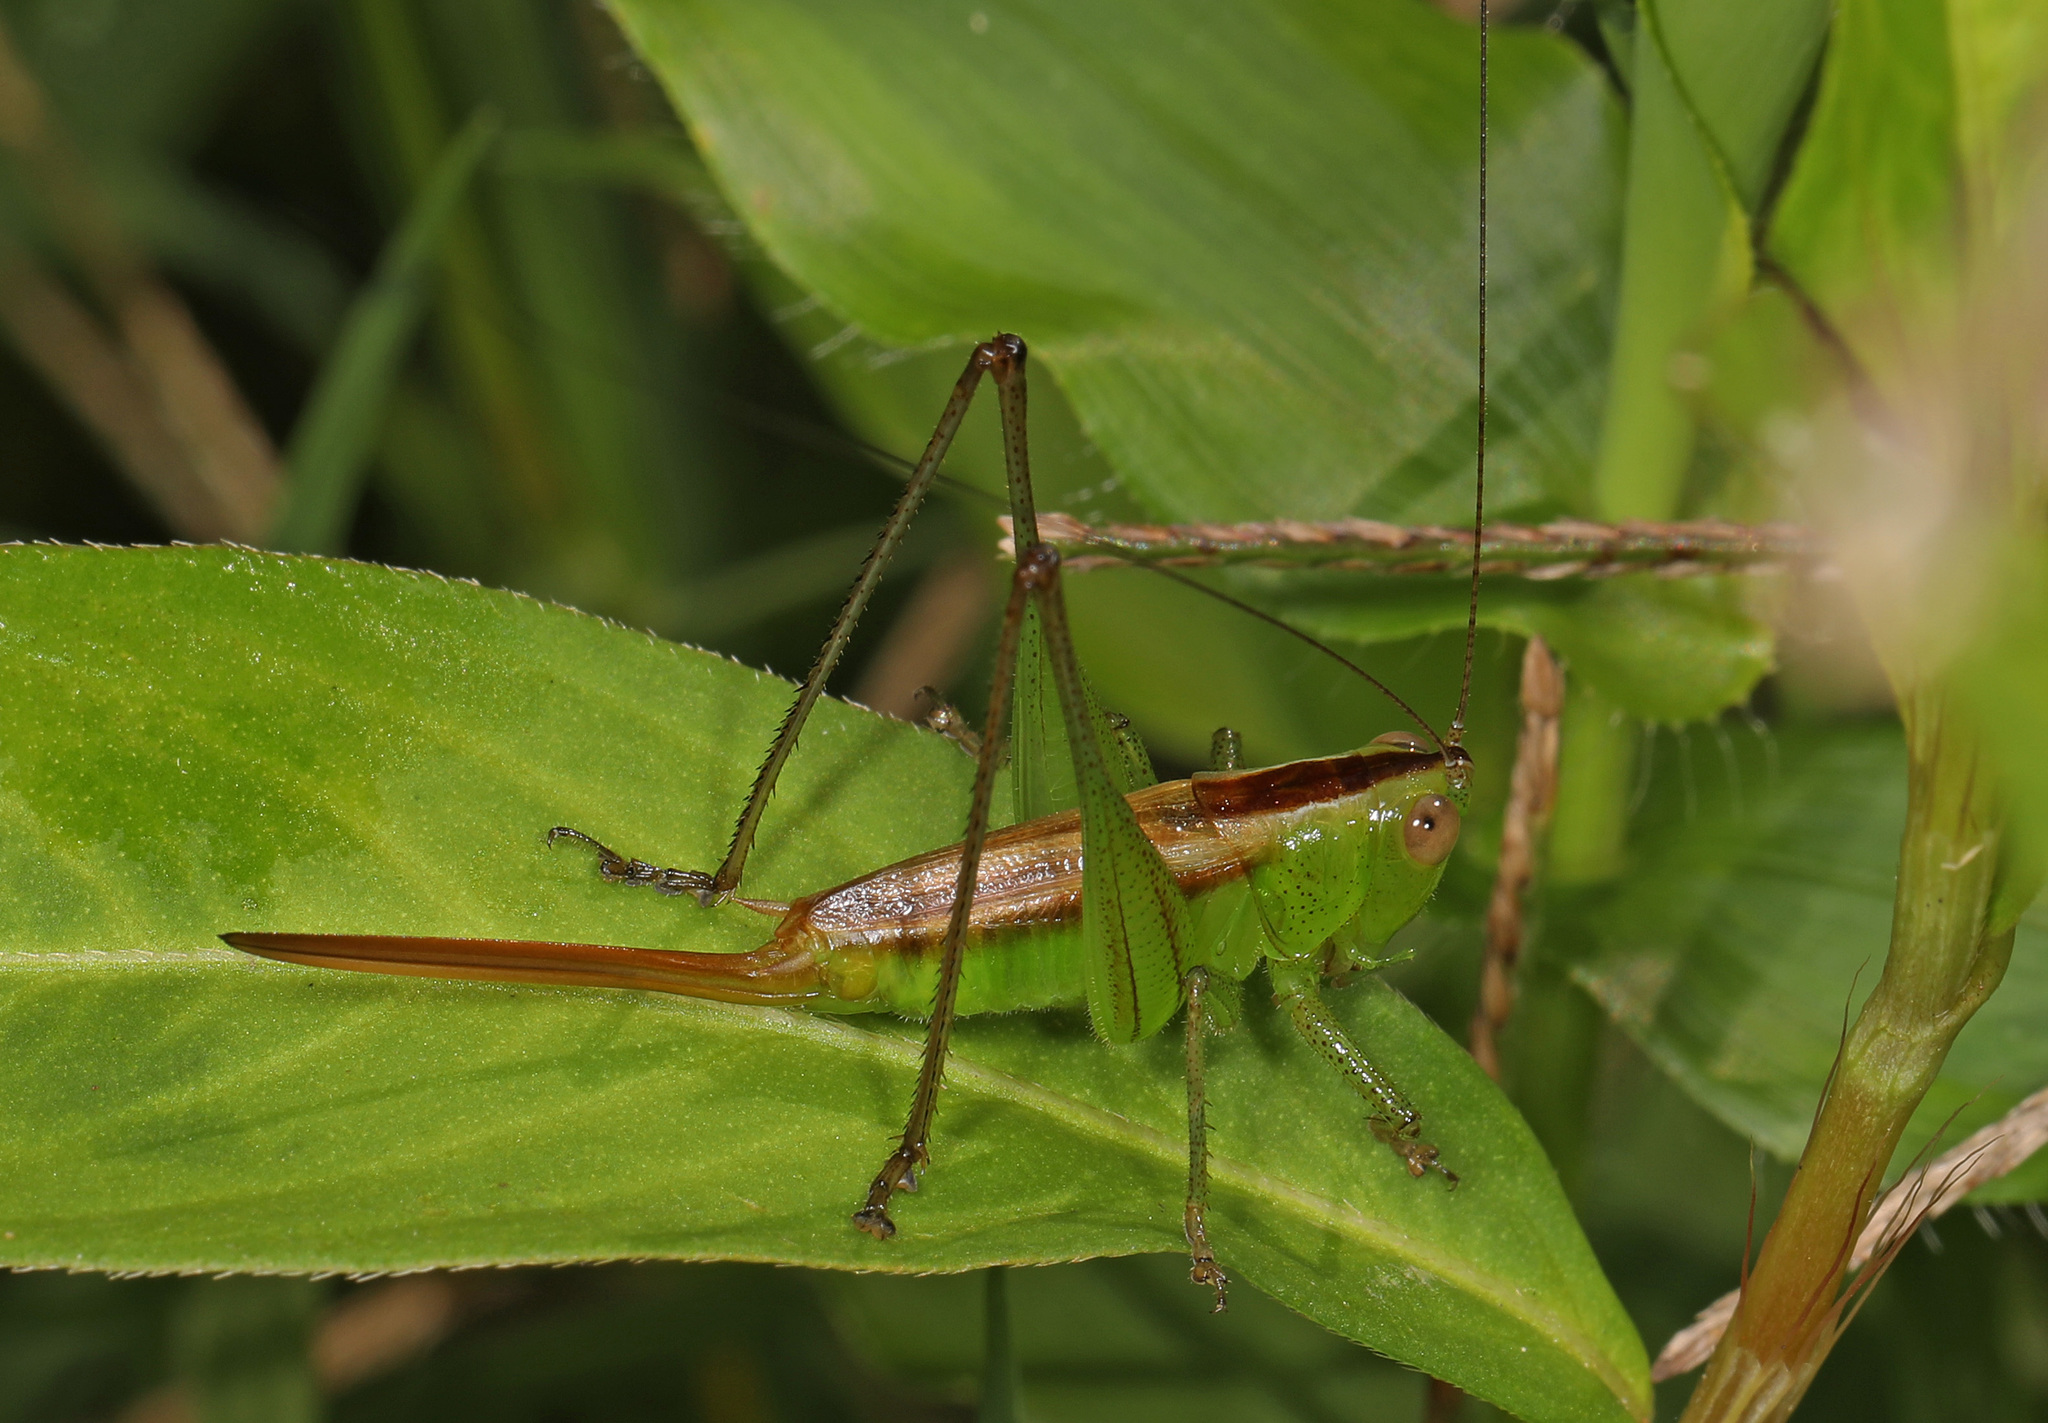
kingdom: Animalia
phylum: Arthropoda
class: Insecta
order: Orthoptera
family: Tettigoniidae
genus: Conocephalus
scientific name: Conocephalus brevipennis
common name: Short-winged meadow katydid
